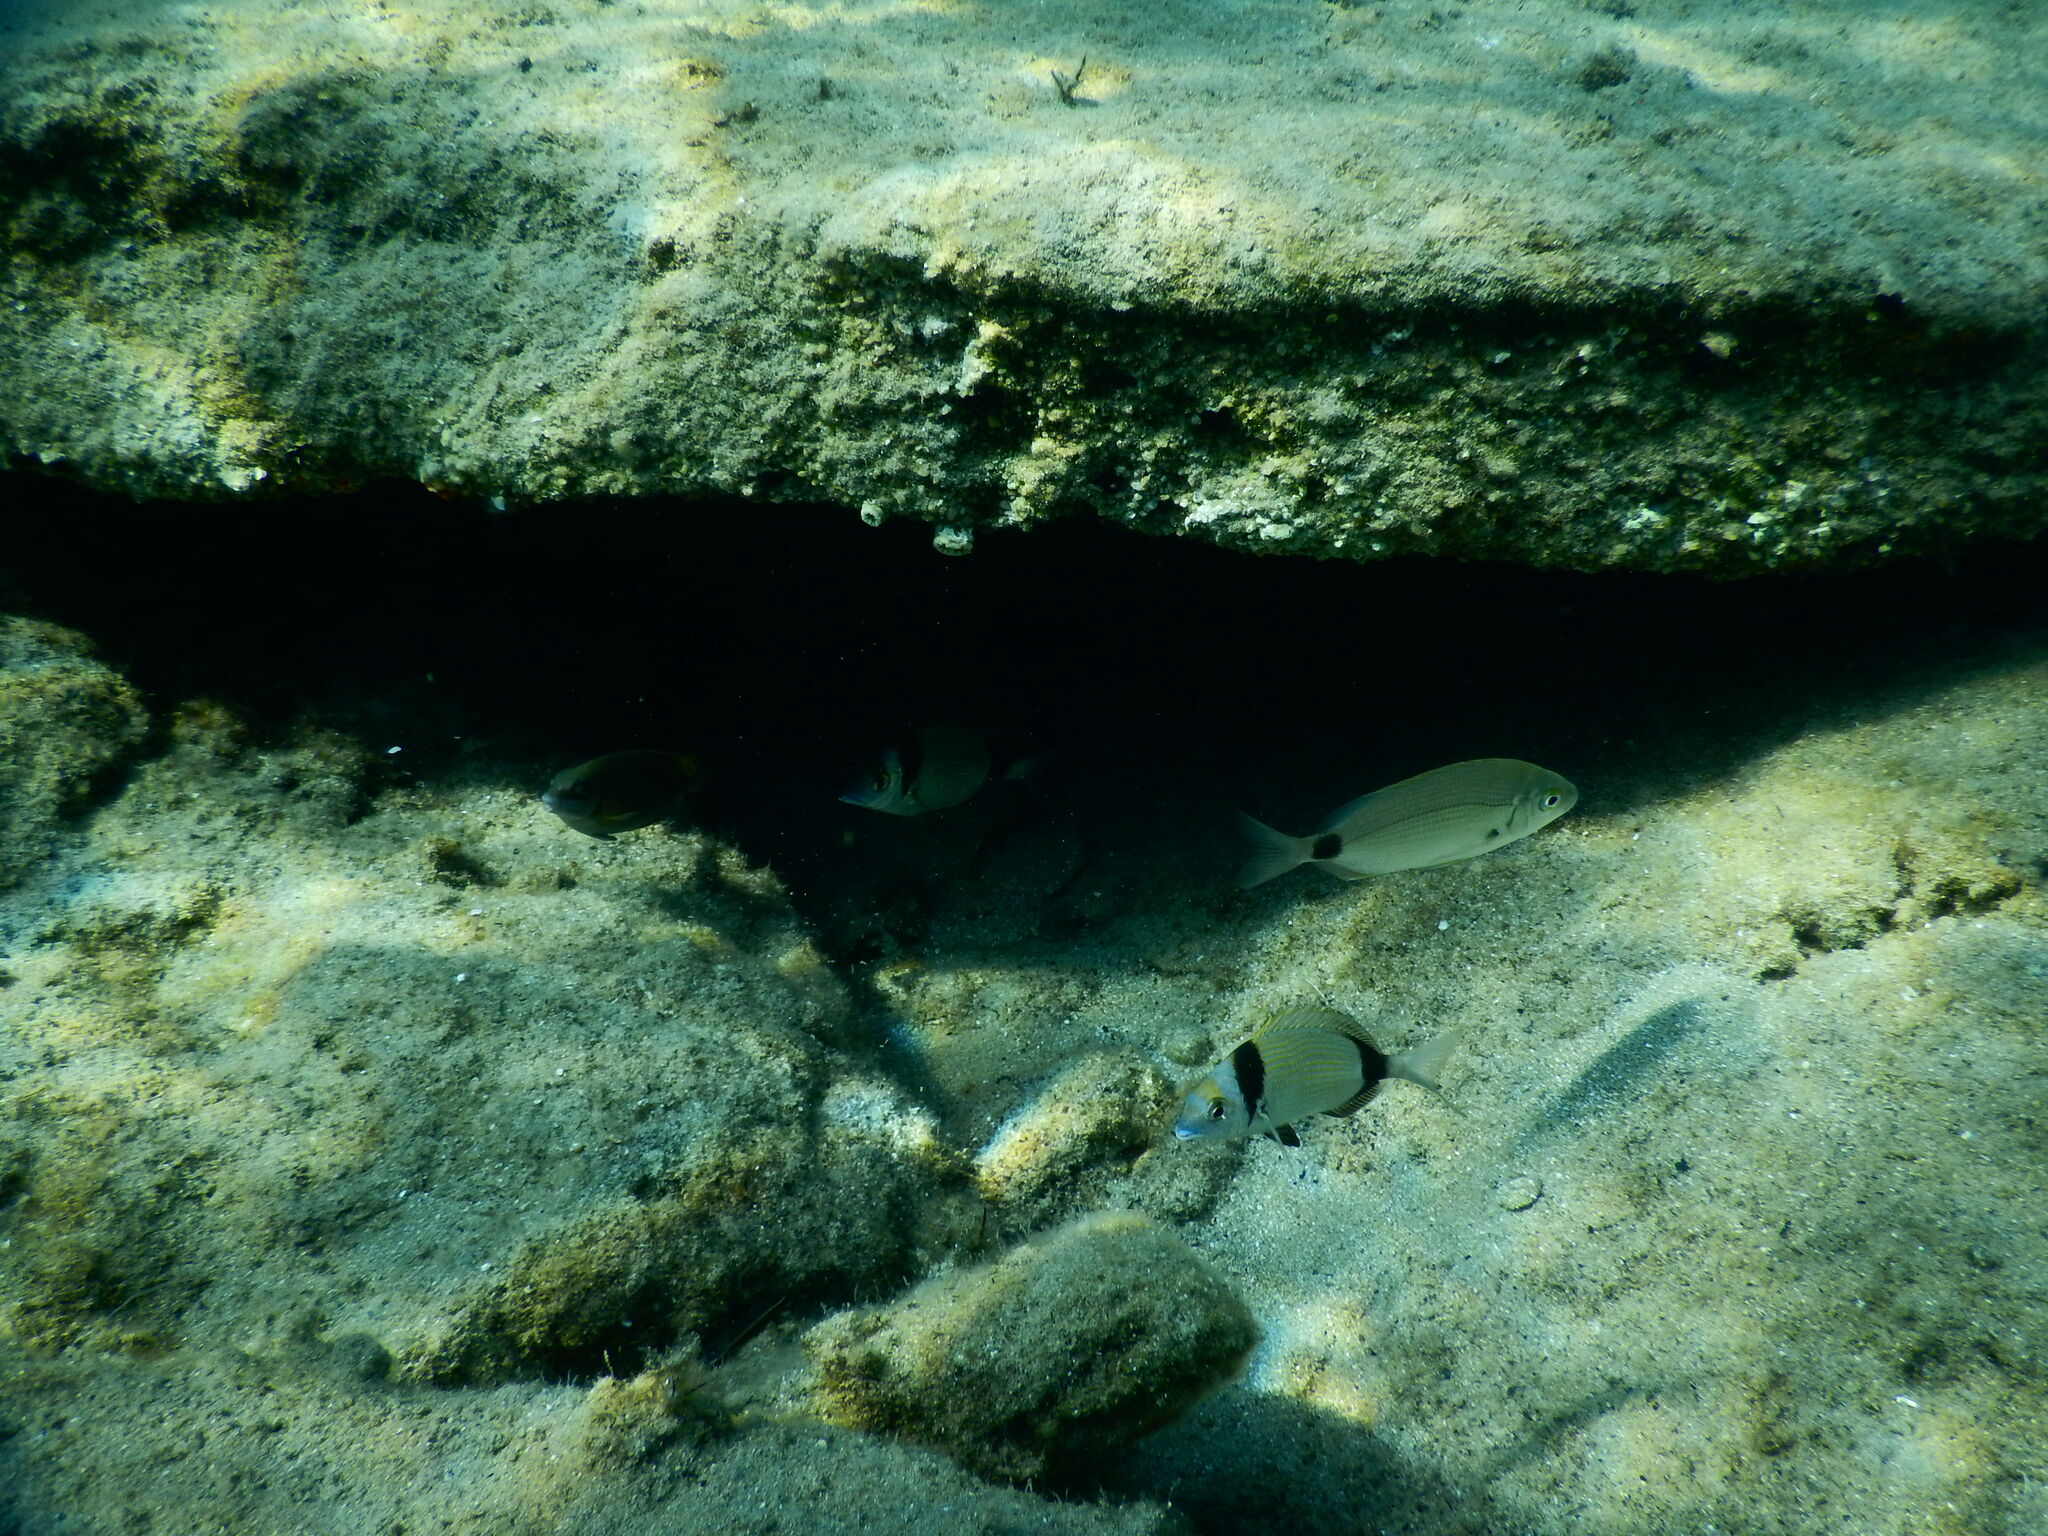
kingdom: Animalia
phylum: Chordata
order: Perciformes
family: Sparidae
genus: Diplodus
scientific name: Diplodus annularis
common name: Annular seabream
